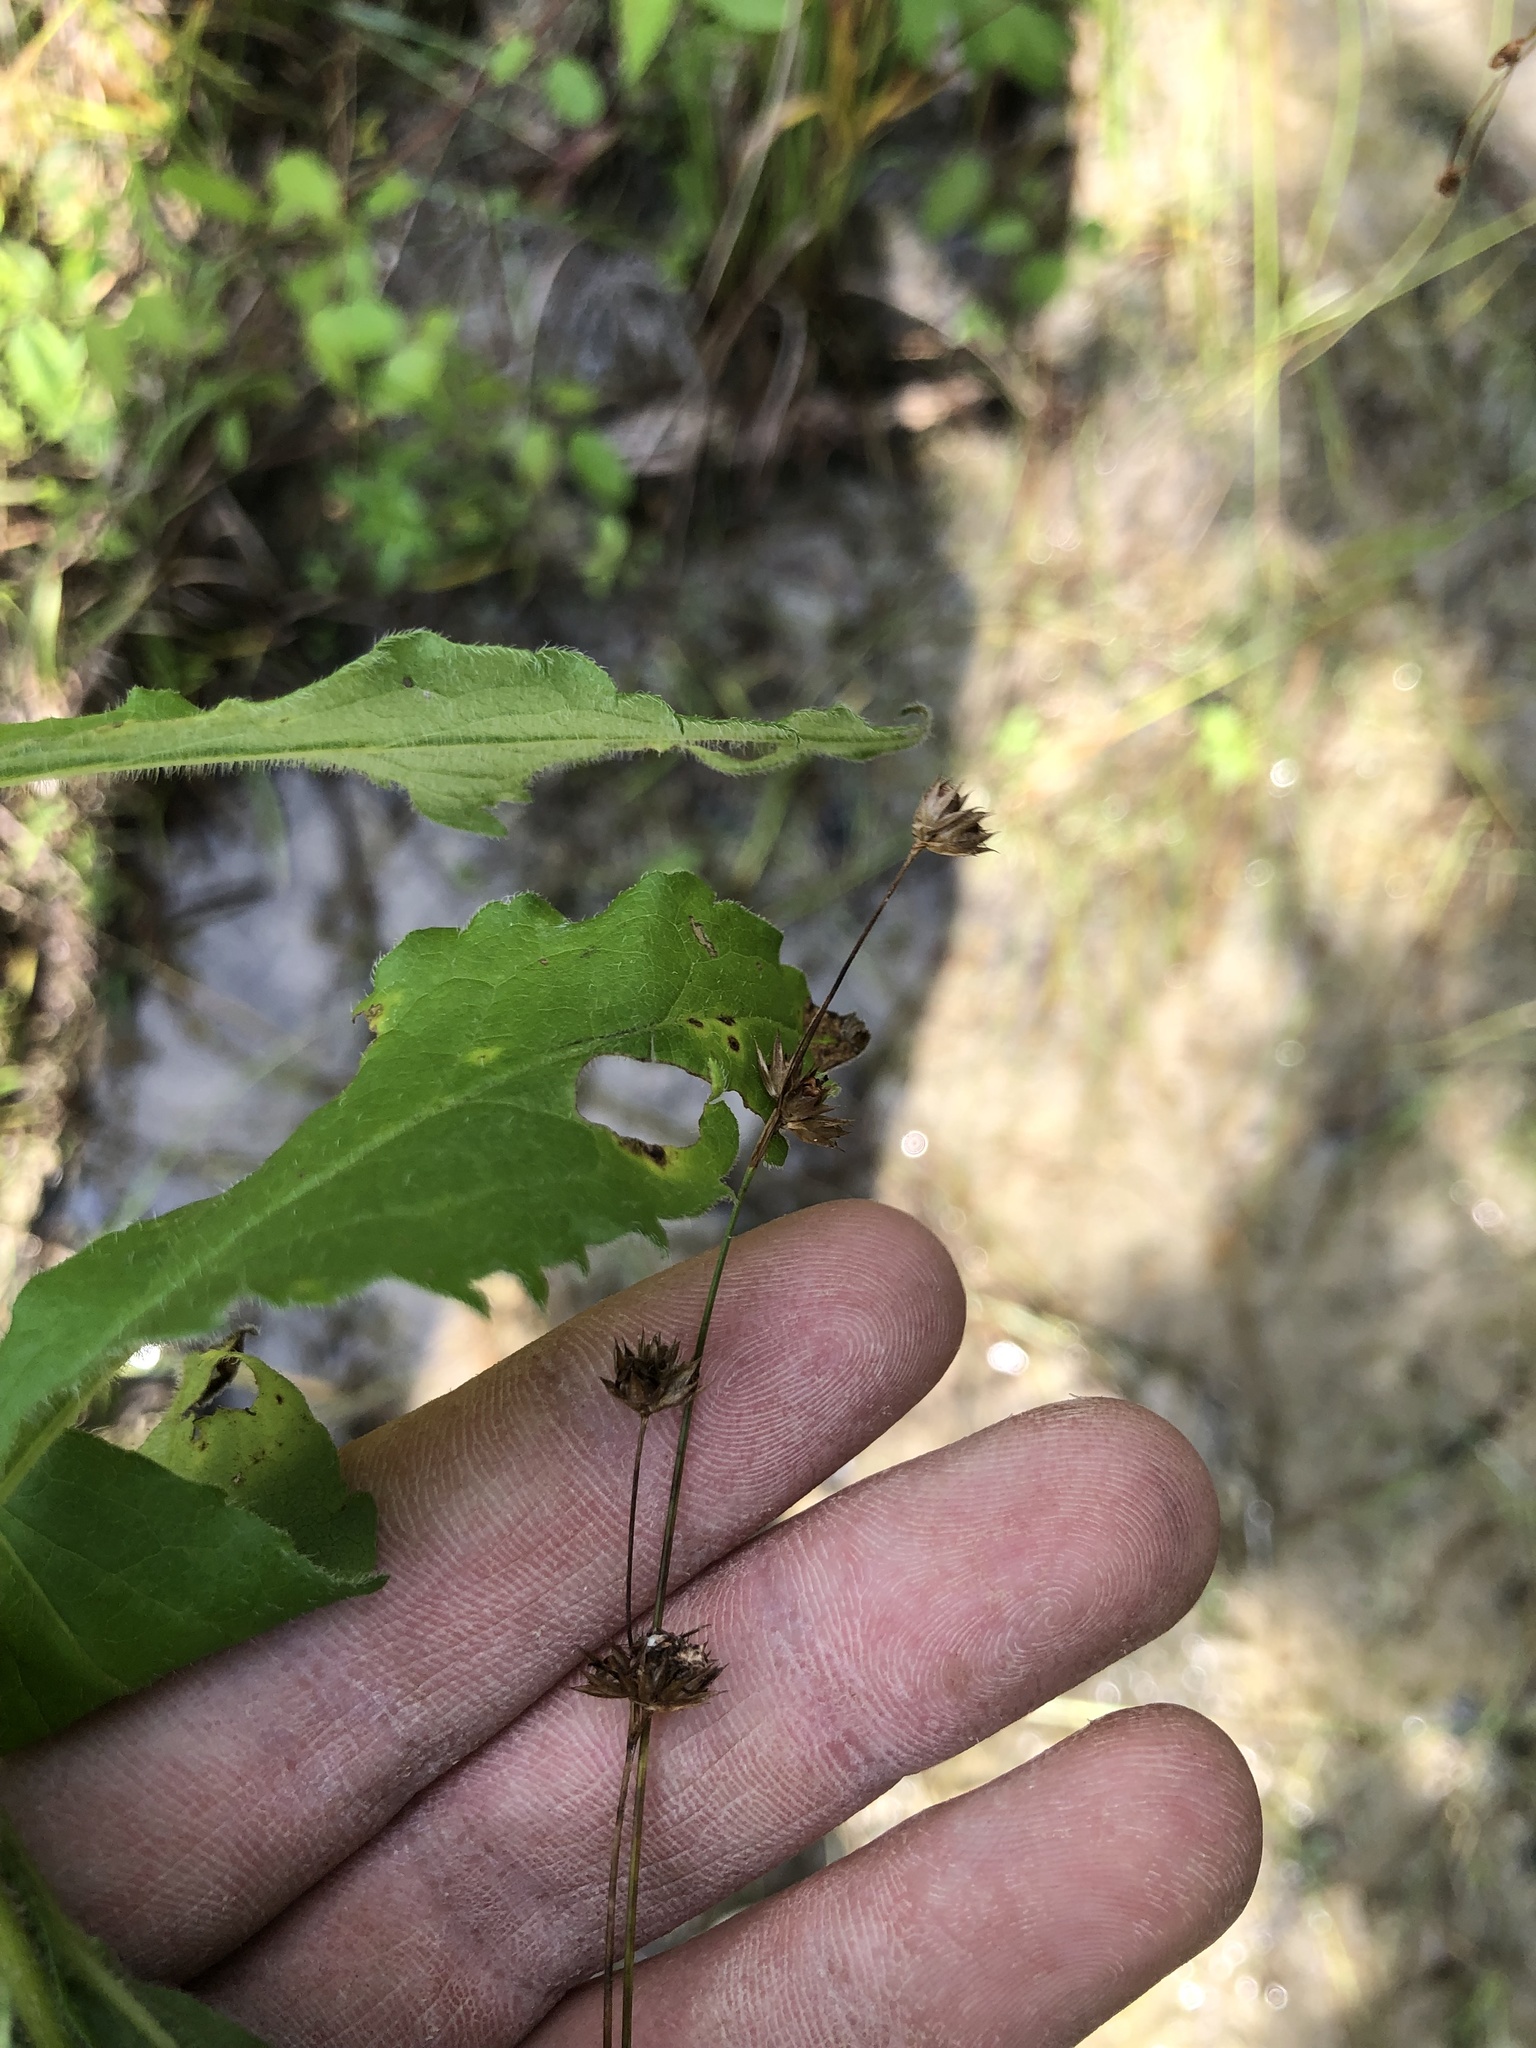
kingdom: Plantae
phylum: Tracheophyta
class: Liliopsida
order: Poales
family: Juncaceae
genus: Juncus
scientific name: Juncus filipendulus
